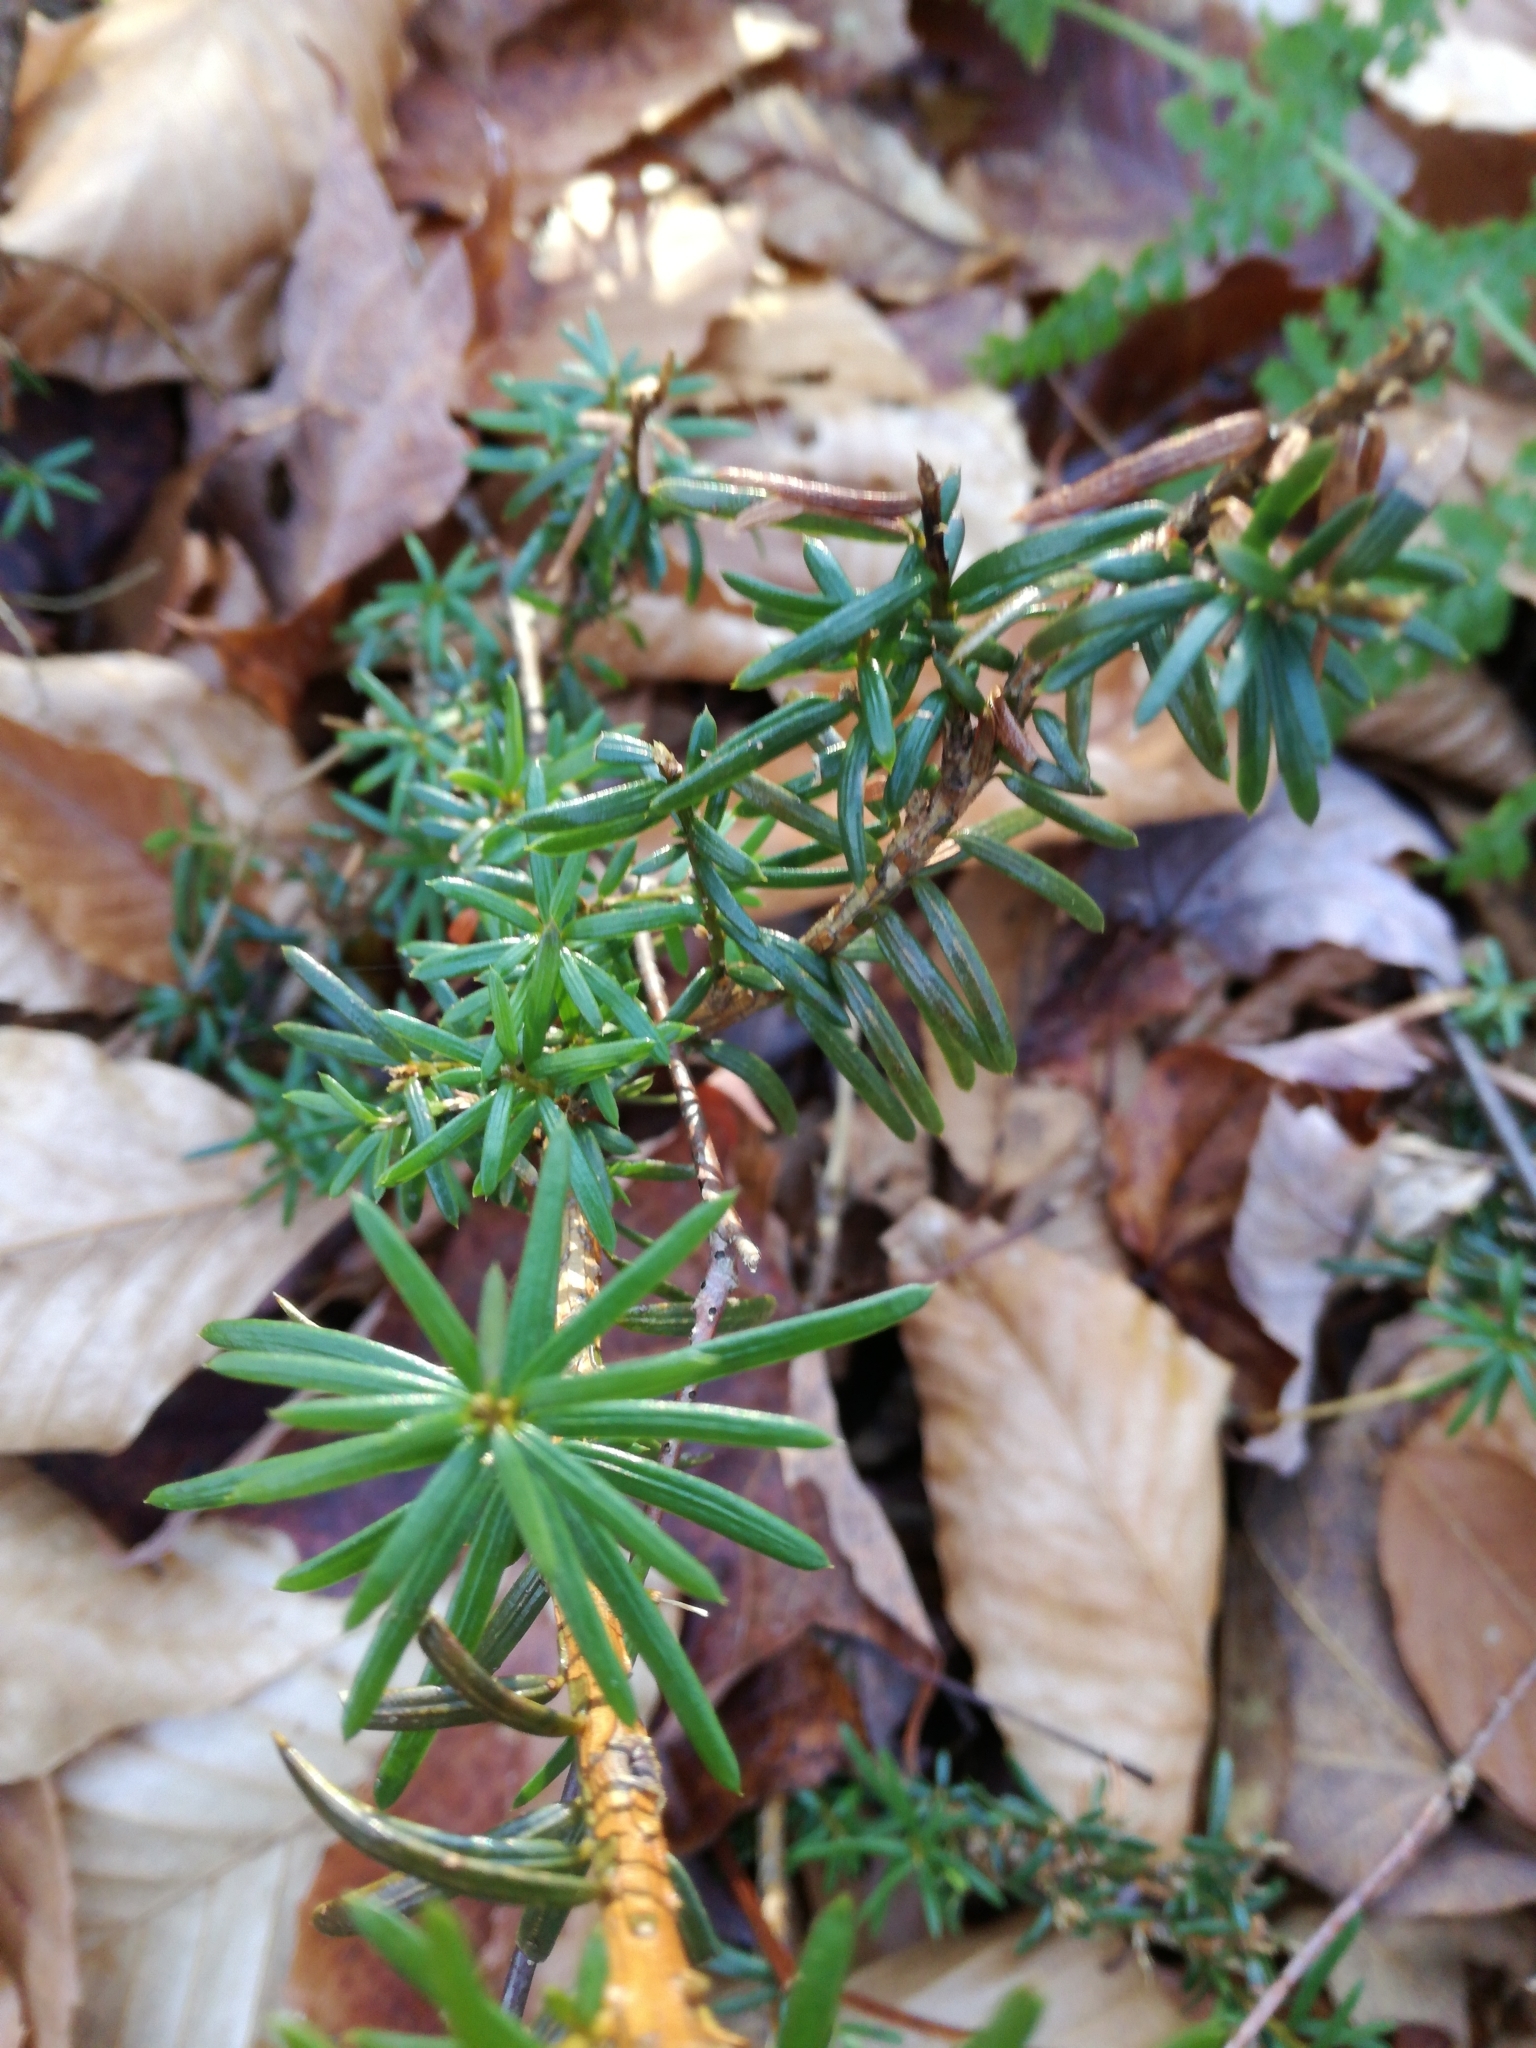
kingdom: Plantae
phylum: Tracheophyta
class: Pinopsida
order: Pinales
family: Pinaceae
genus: Tsuga
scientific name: Tsuga canadensis
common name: Eastern hemlock
